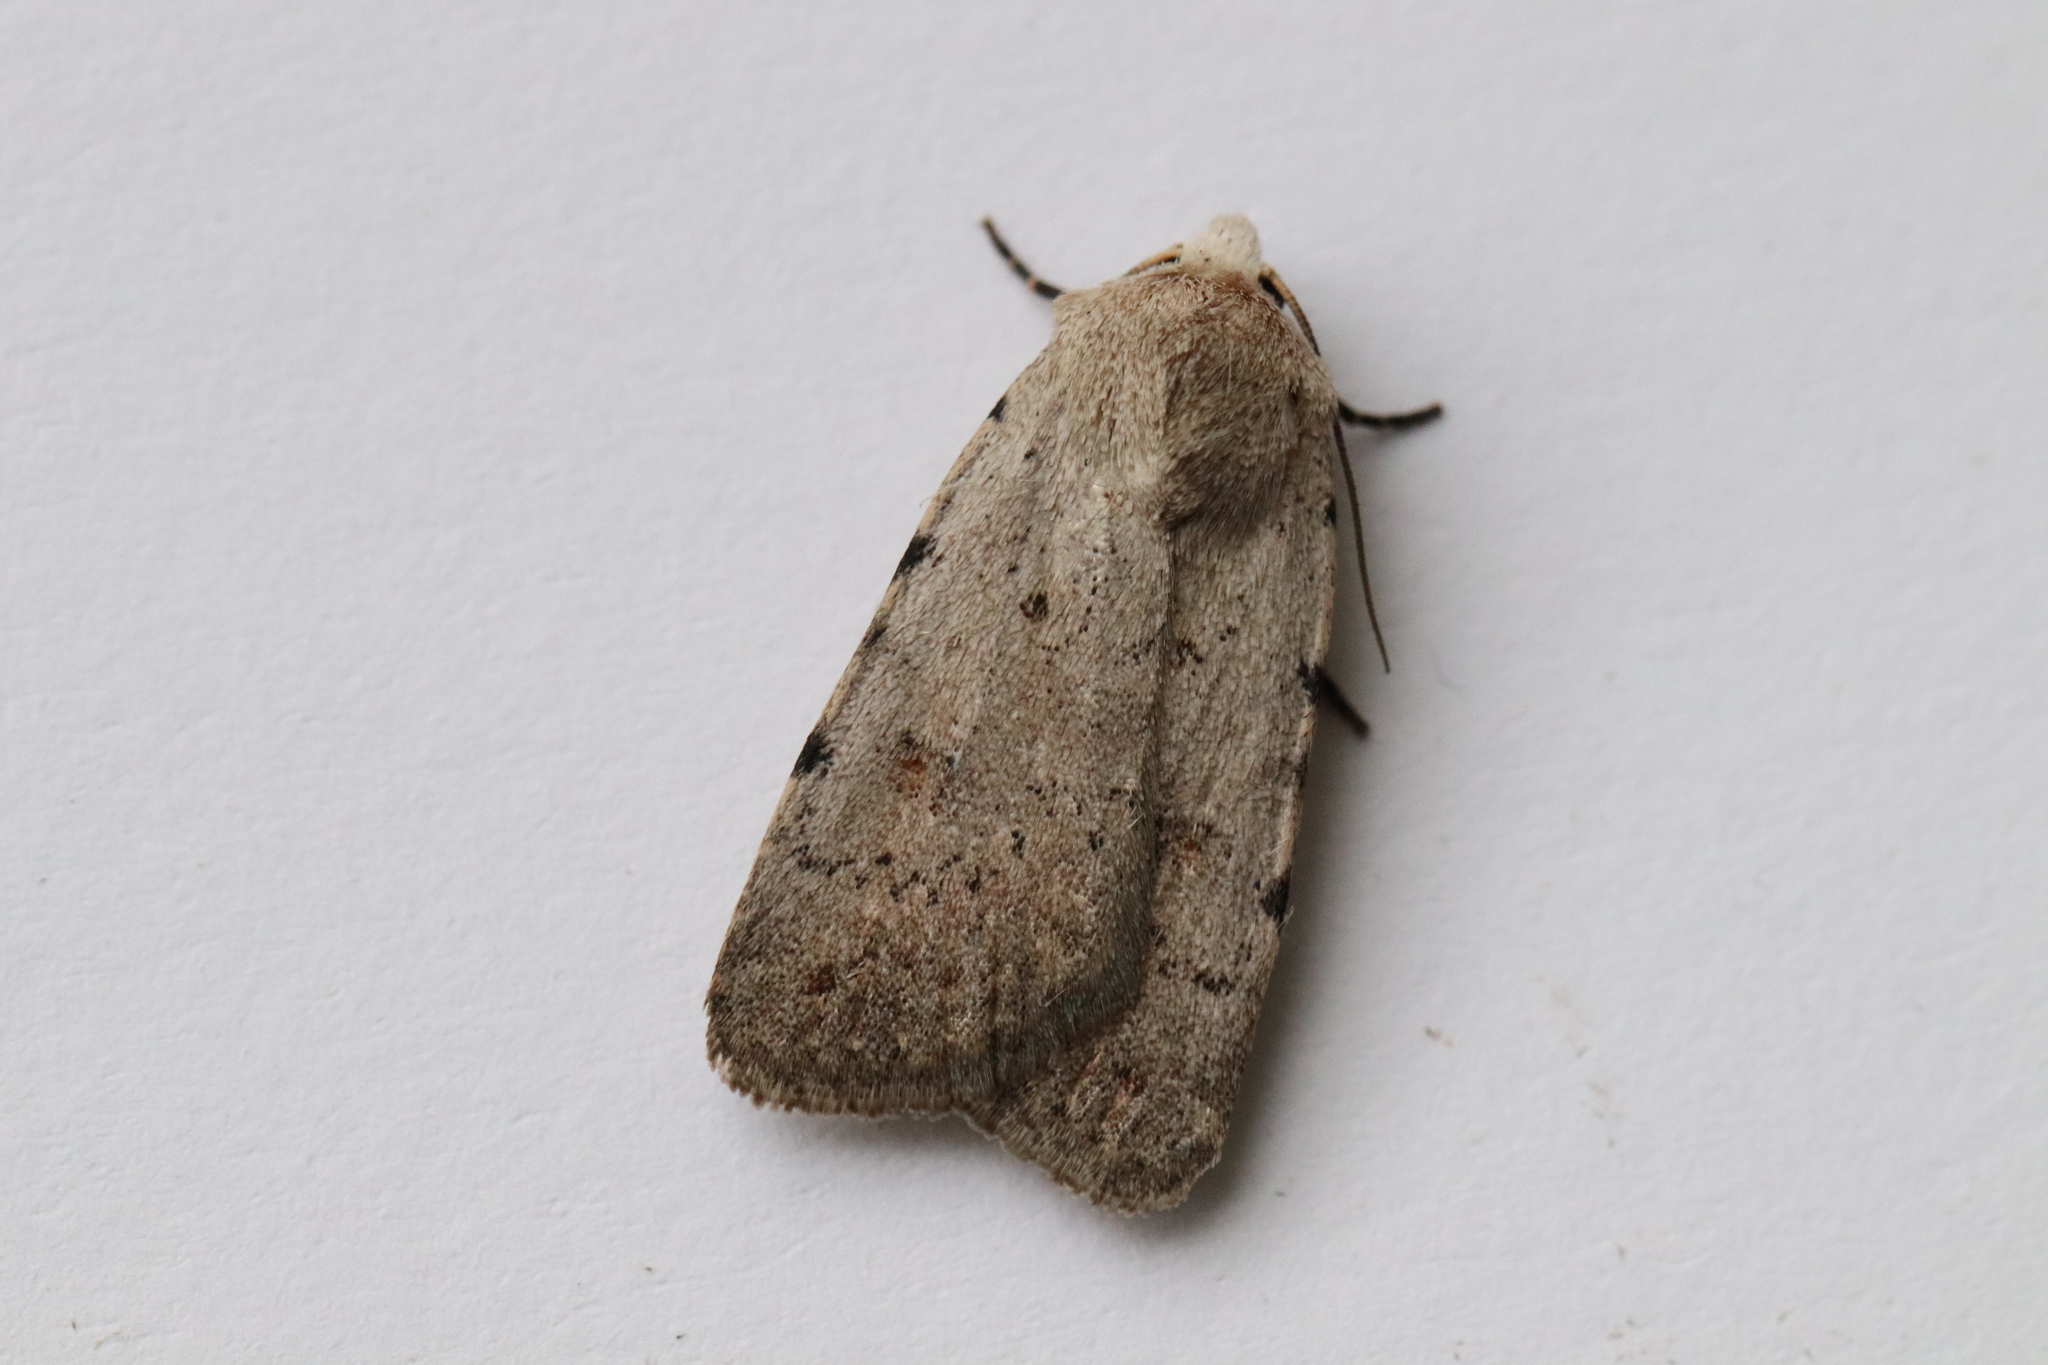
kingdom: Animalia
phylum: Arthropoda
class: Insecta
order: Lepidoptera
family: Noctuidae
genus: Caradrina
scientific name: Caradrina clavipalpis
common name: Pale mottled willow
